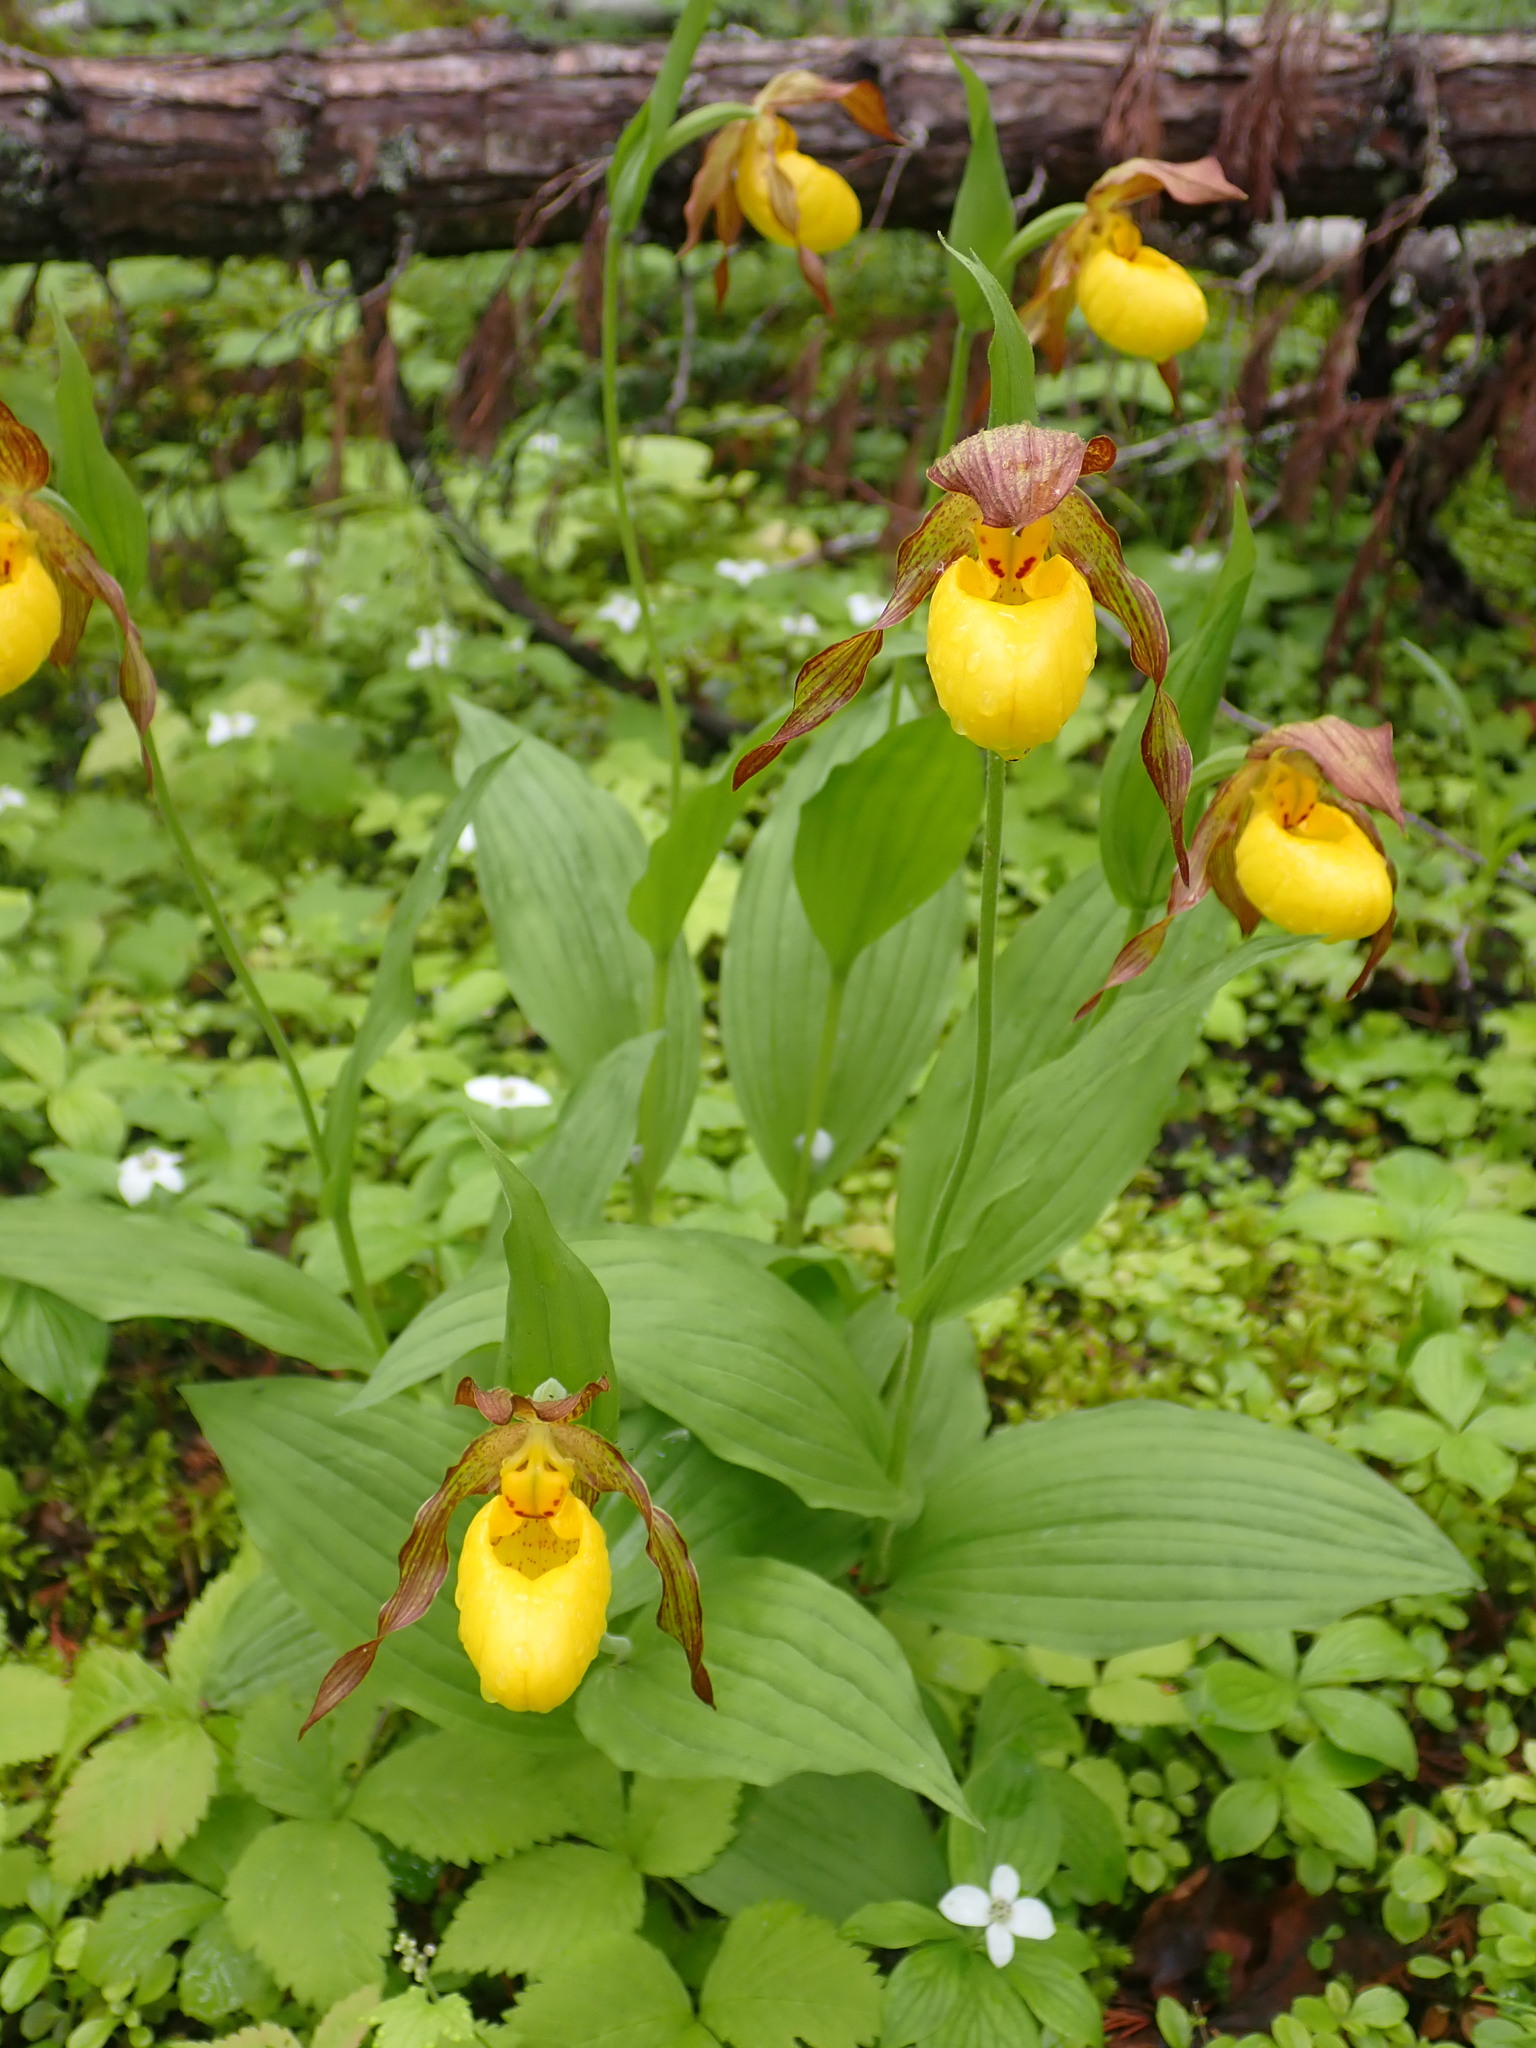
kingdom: Plantae
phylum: Tracheophyta
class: Liliopsida
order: Asparagales
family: Orchidaceae
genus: Cypripedium
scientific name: Cypripedium parviflorum
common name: American yellow lady's-slipper
